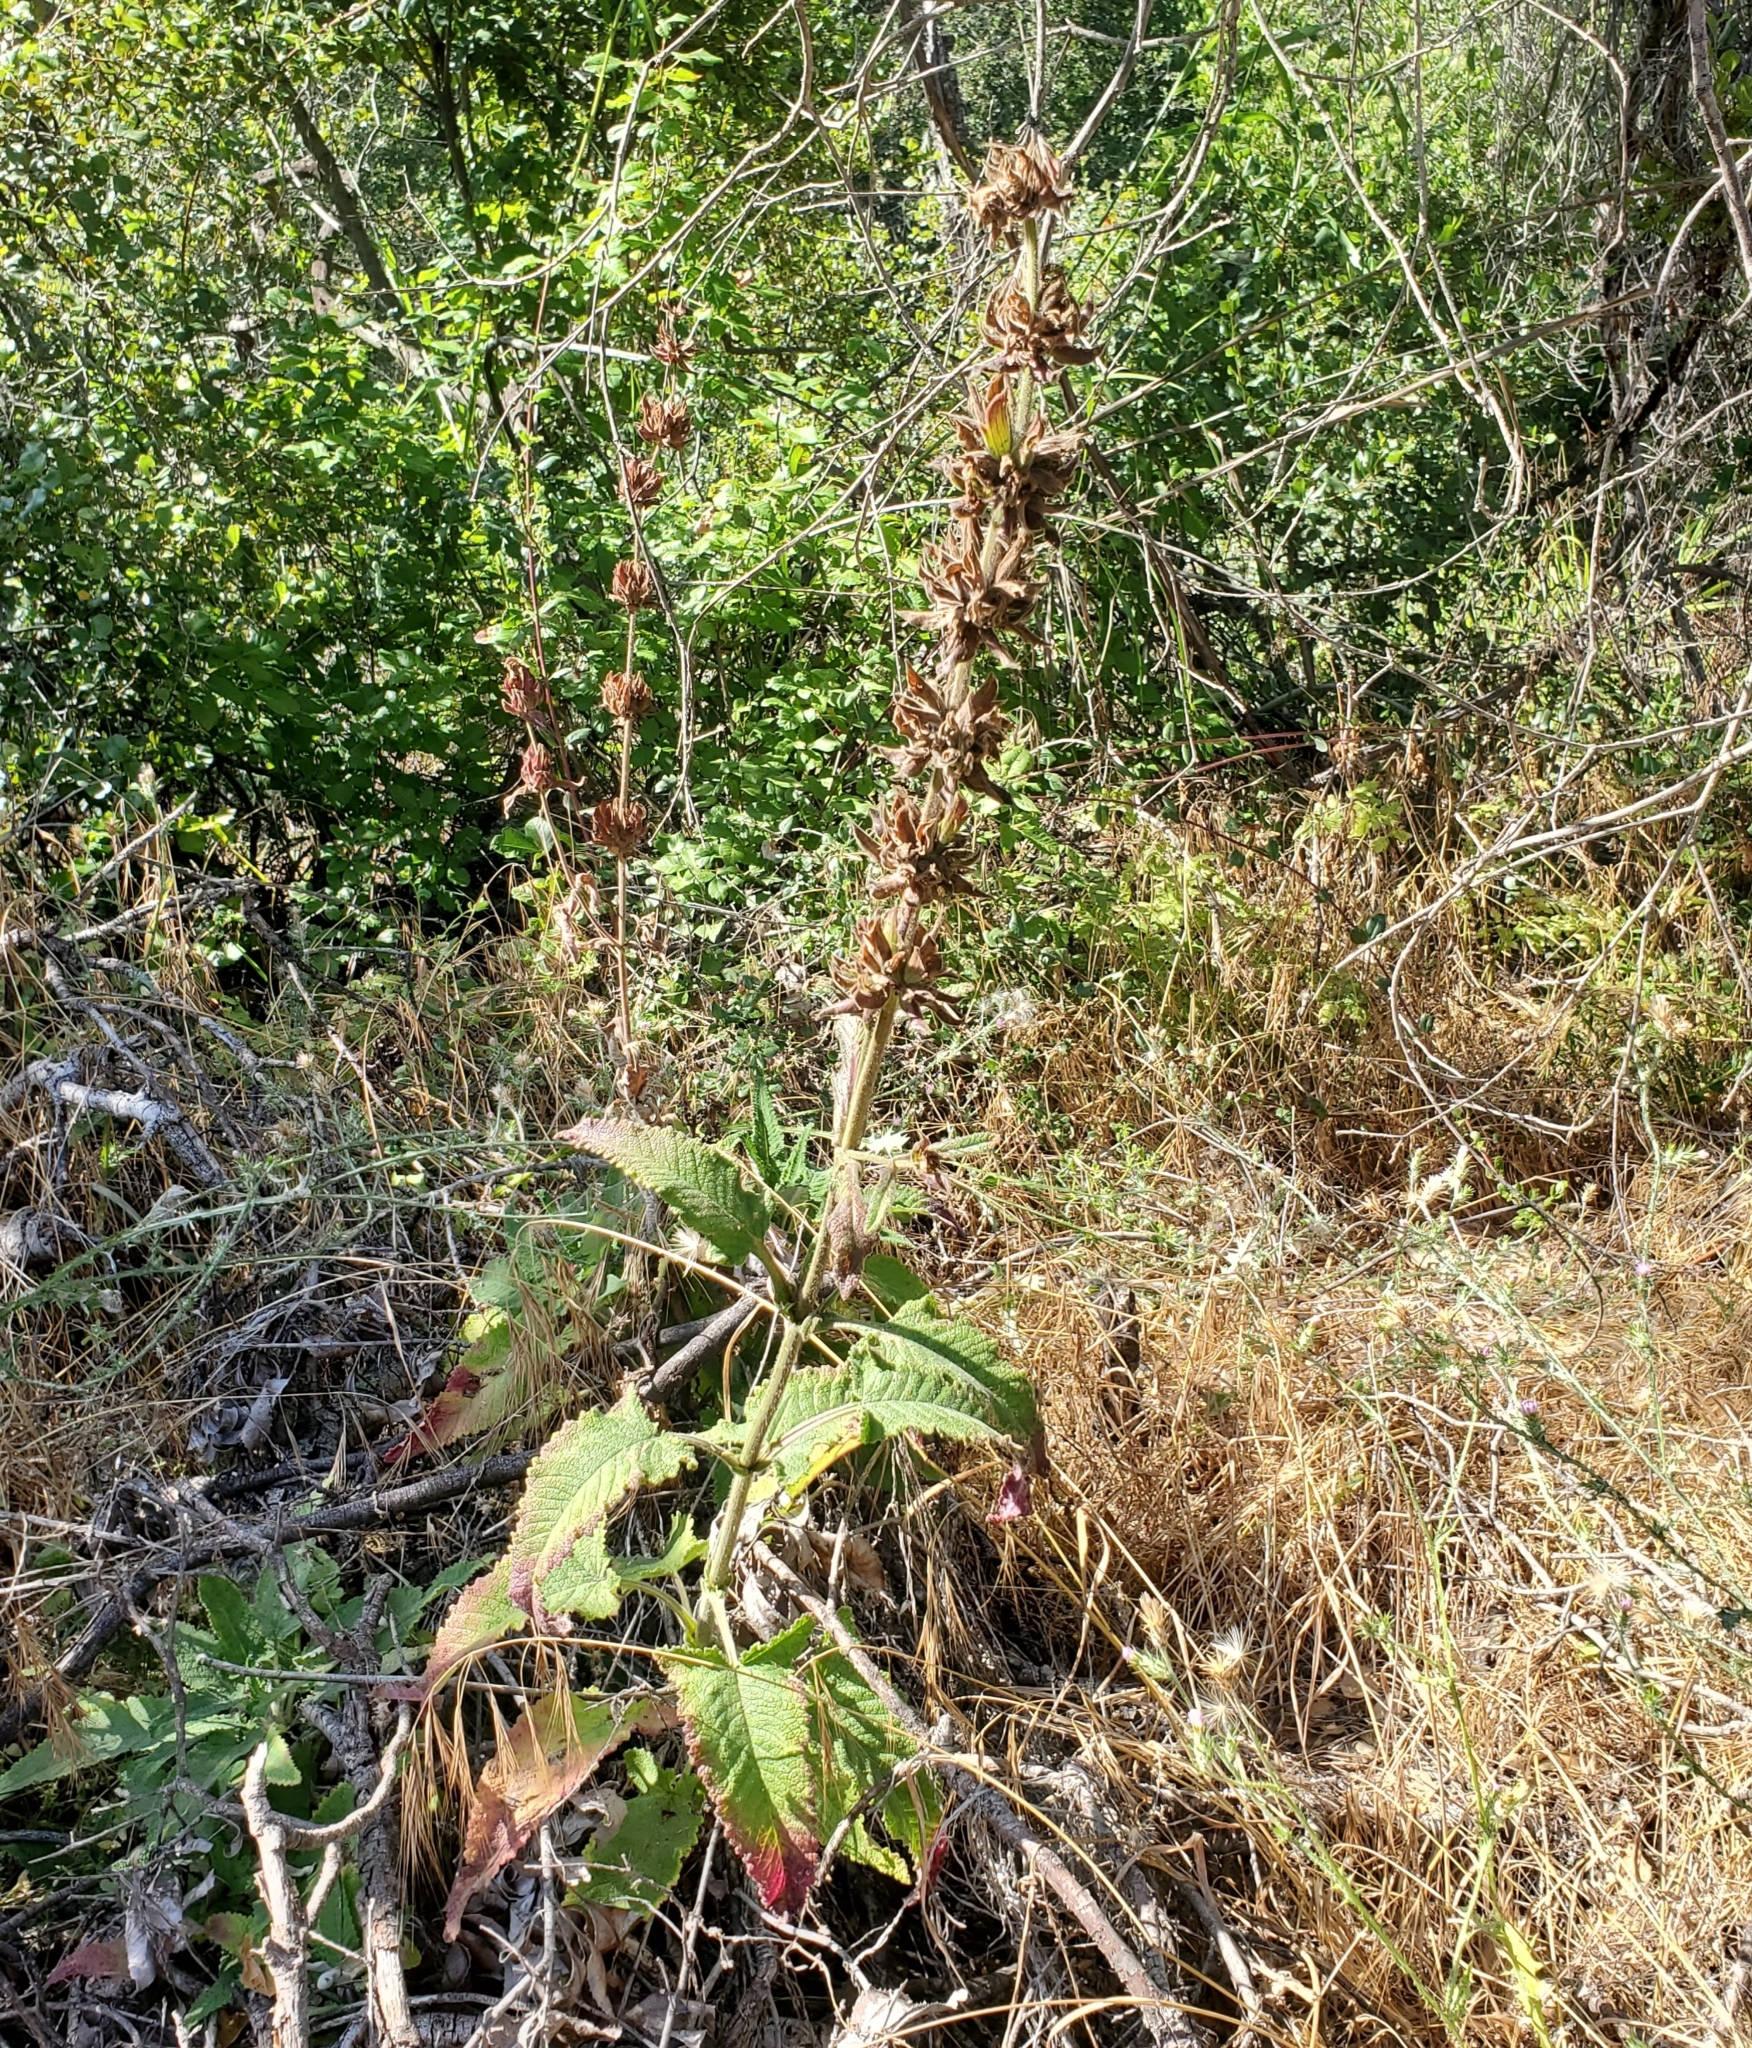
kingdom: Plantae
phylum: Tracheophyta
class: Magnoliopsida
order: Lamiales
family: Lamiaceae
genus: Salvia
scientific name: Salvia spathacea
